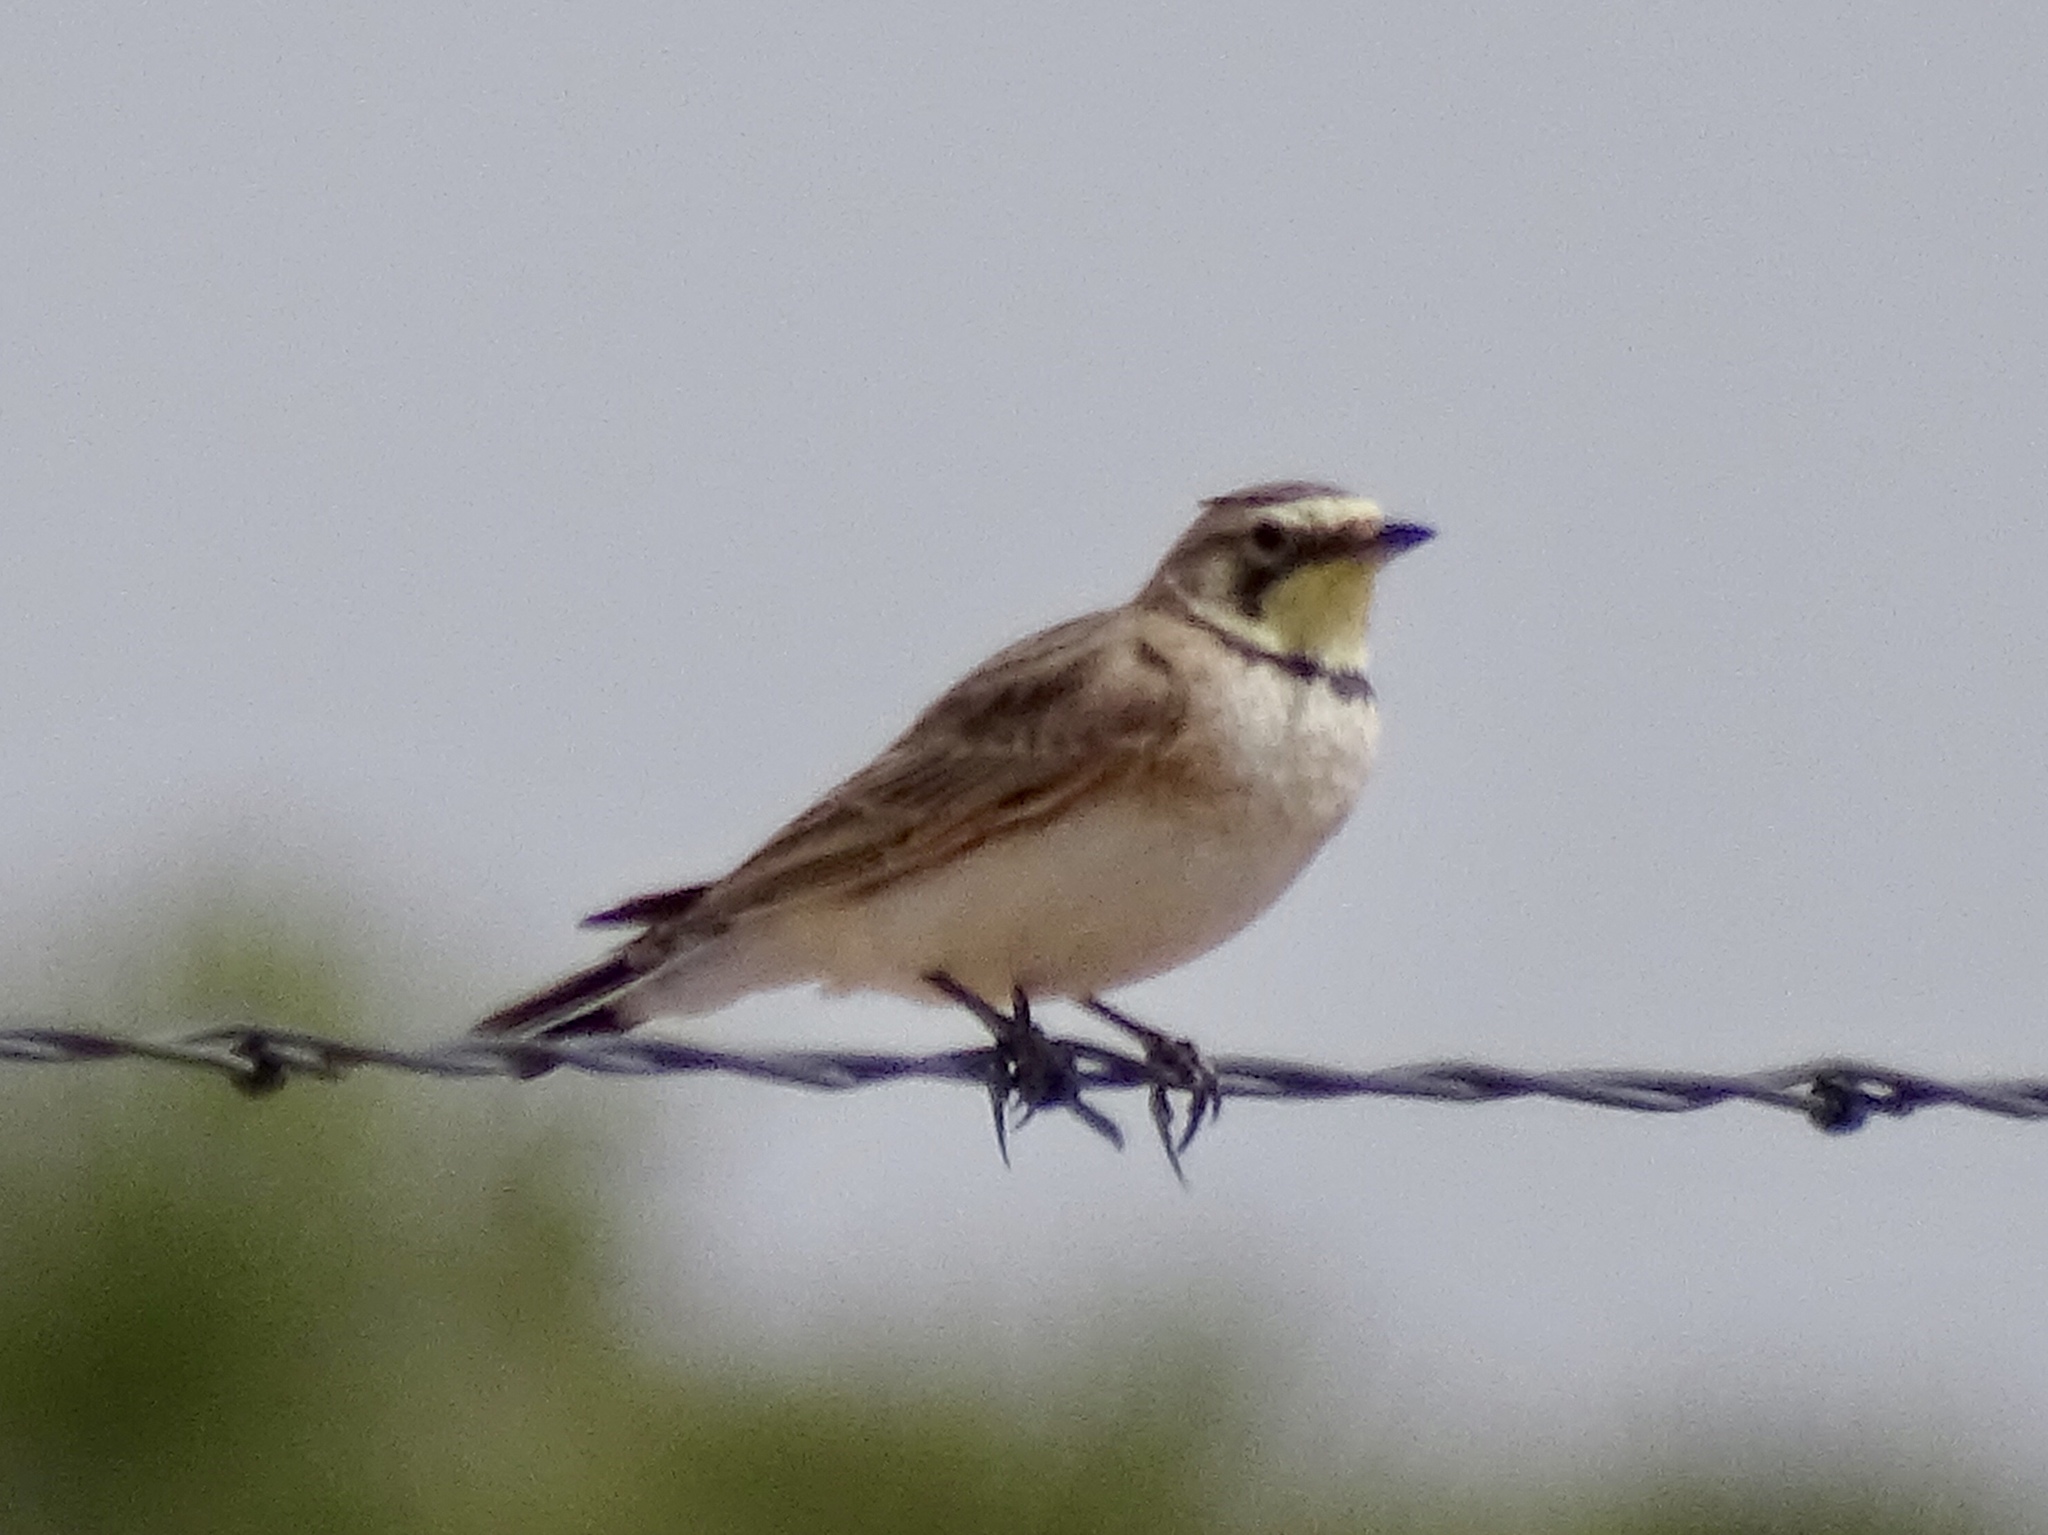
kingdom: Animalia
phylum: Chordata
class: Aves
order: Passeriformes
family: Alaudidae
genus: Eremophila
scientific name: Eremophila alpestris
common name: Horned lark
